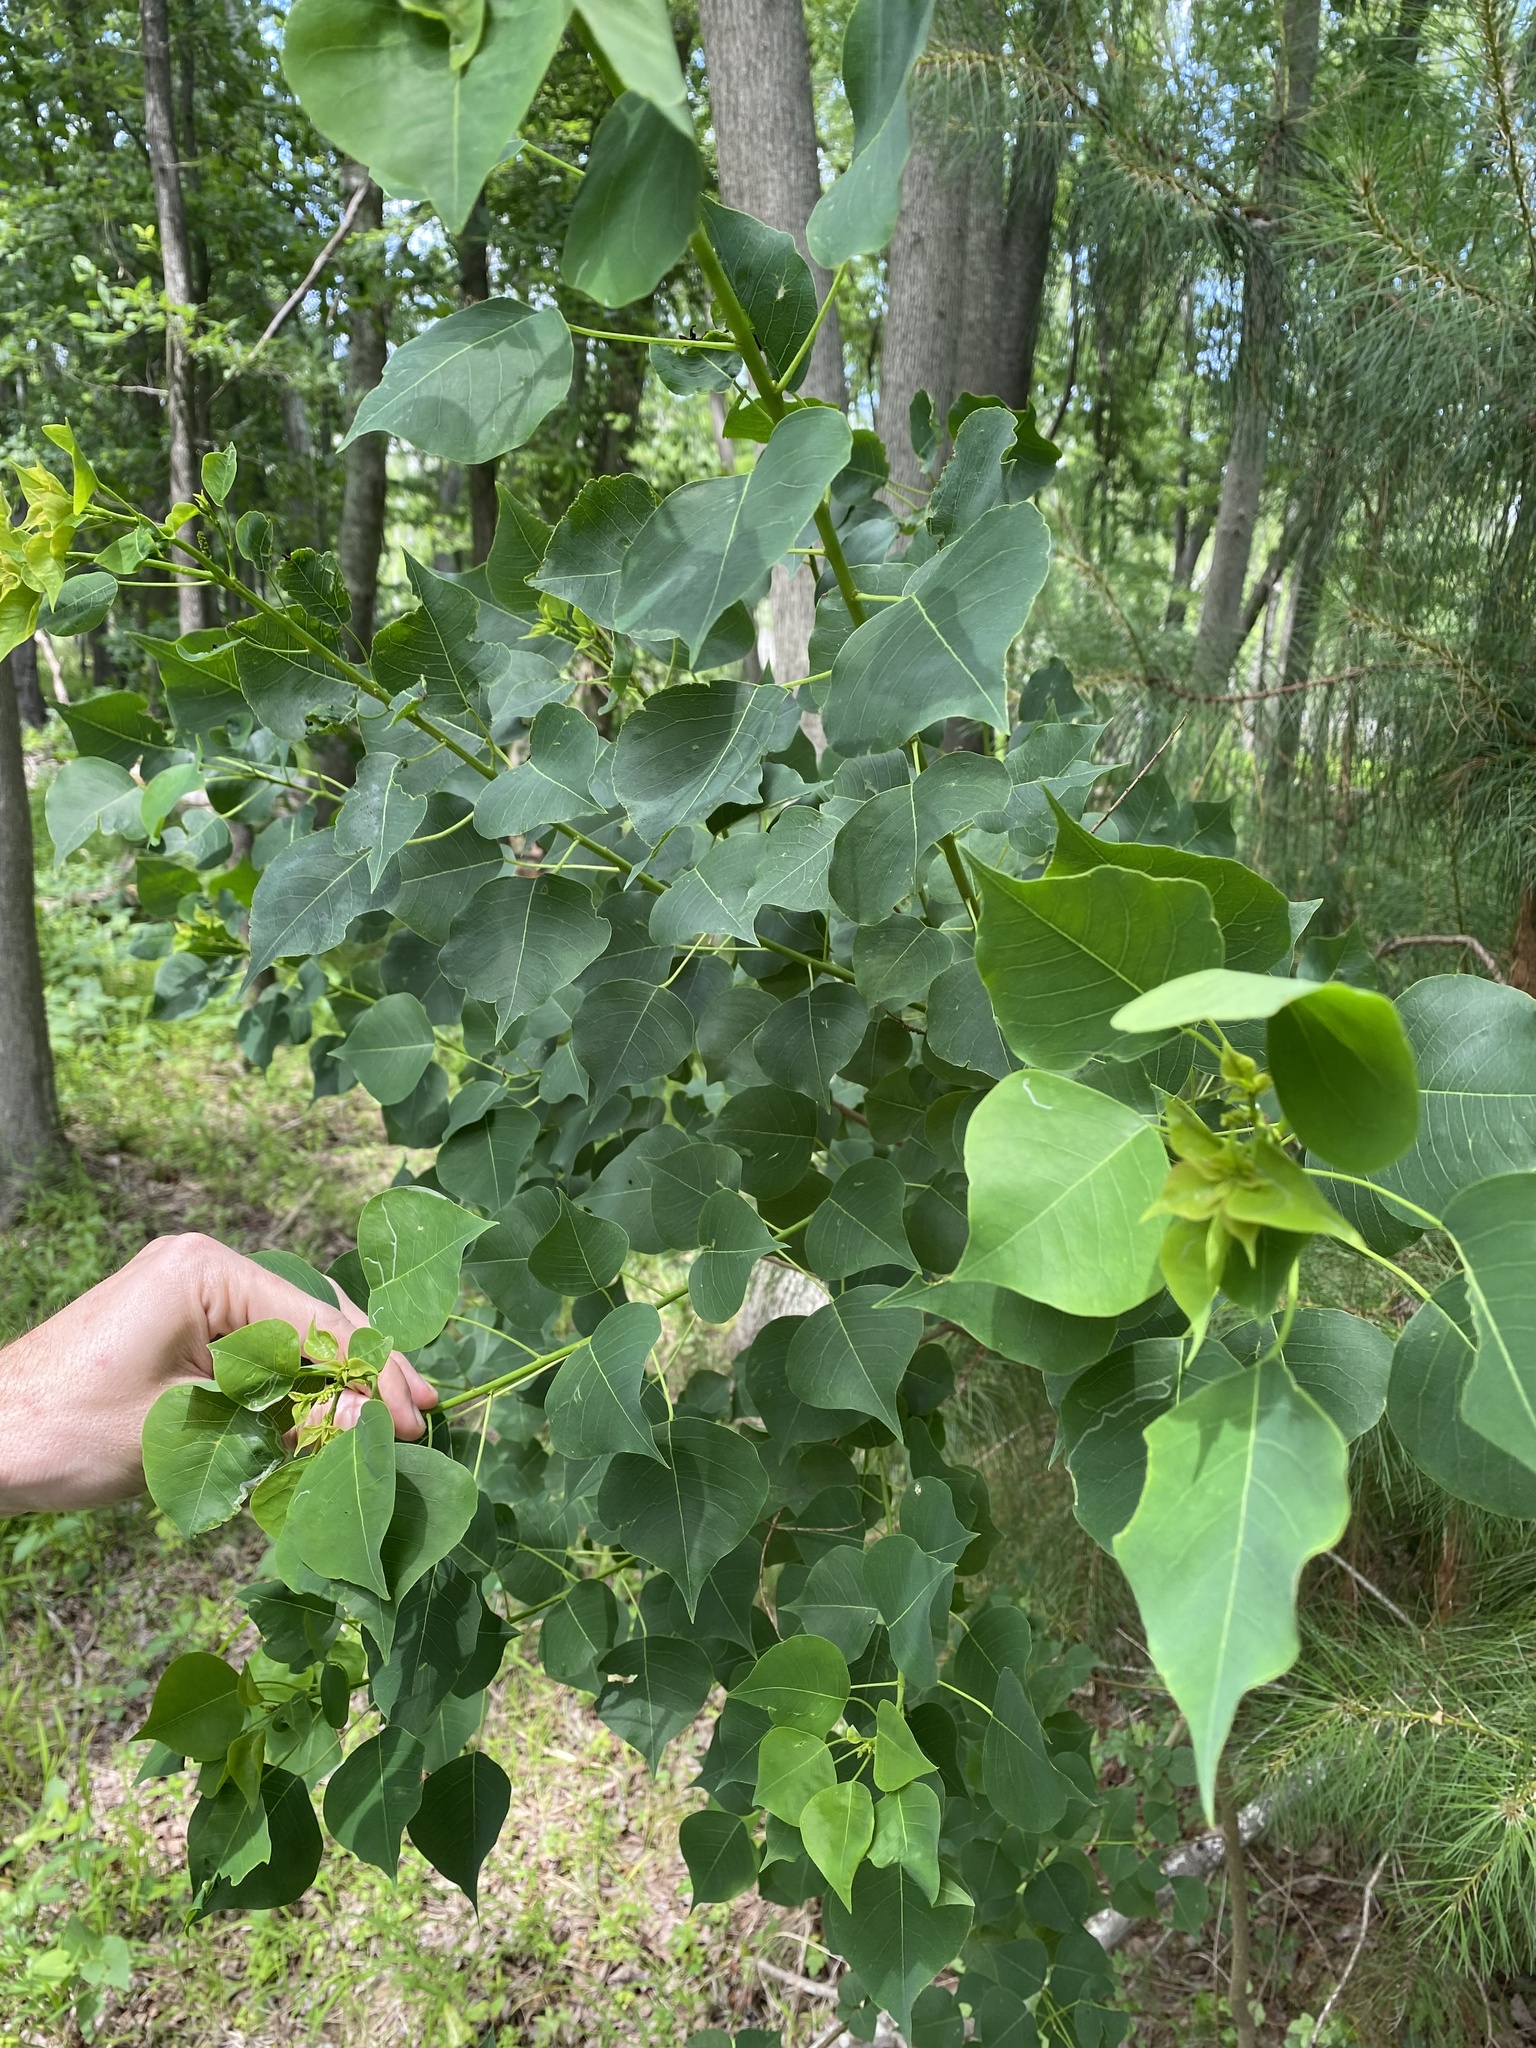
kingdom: Plantae
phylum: Tracheophyta
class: Magnoliopsida
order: Malpighiales
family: Euphorbiaceae
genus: Triadica
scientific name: Triadica sebifera
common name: Chinese tallow
